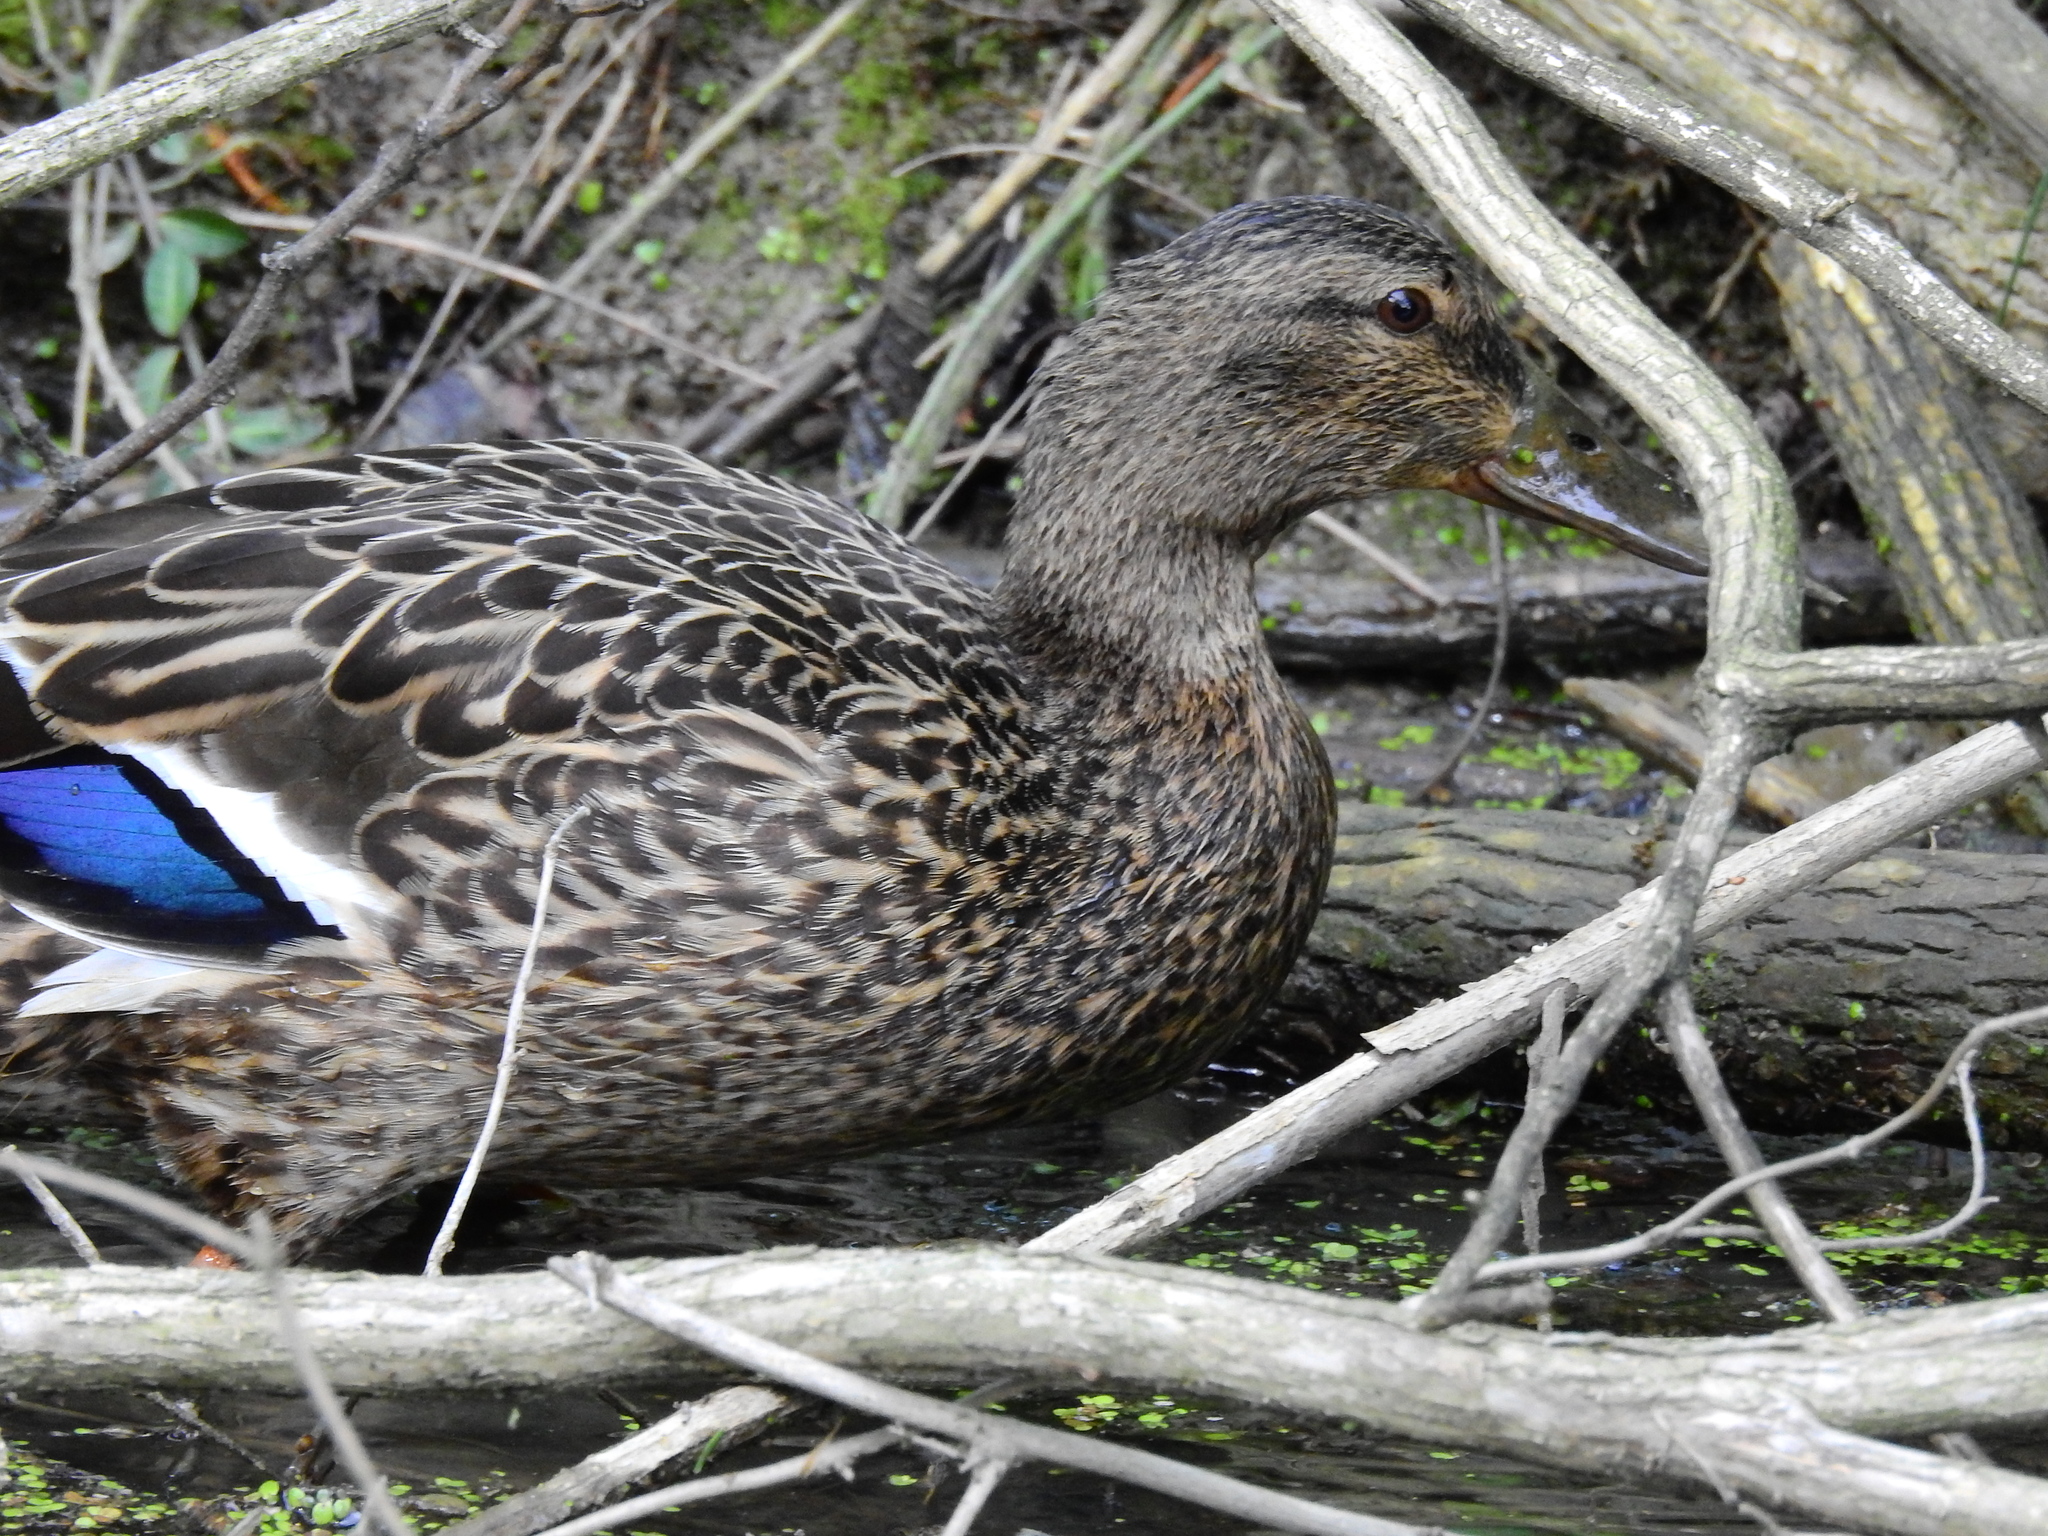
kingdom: Animalia
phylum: Chordata
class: Aves
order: Anseriformes
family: Anatidae
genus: Anas
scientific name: Anas platyrhynchos
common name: Mallard
